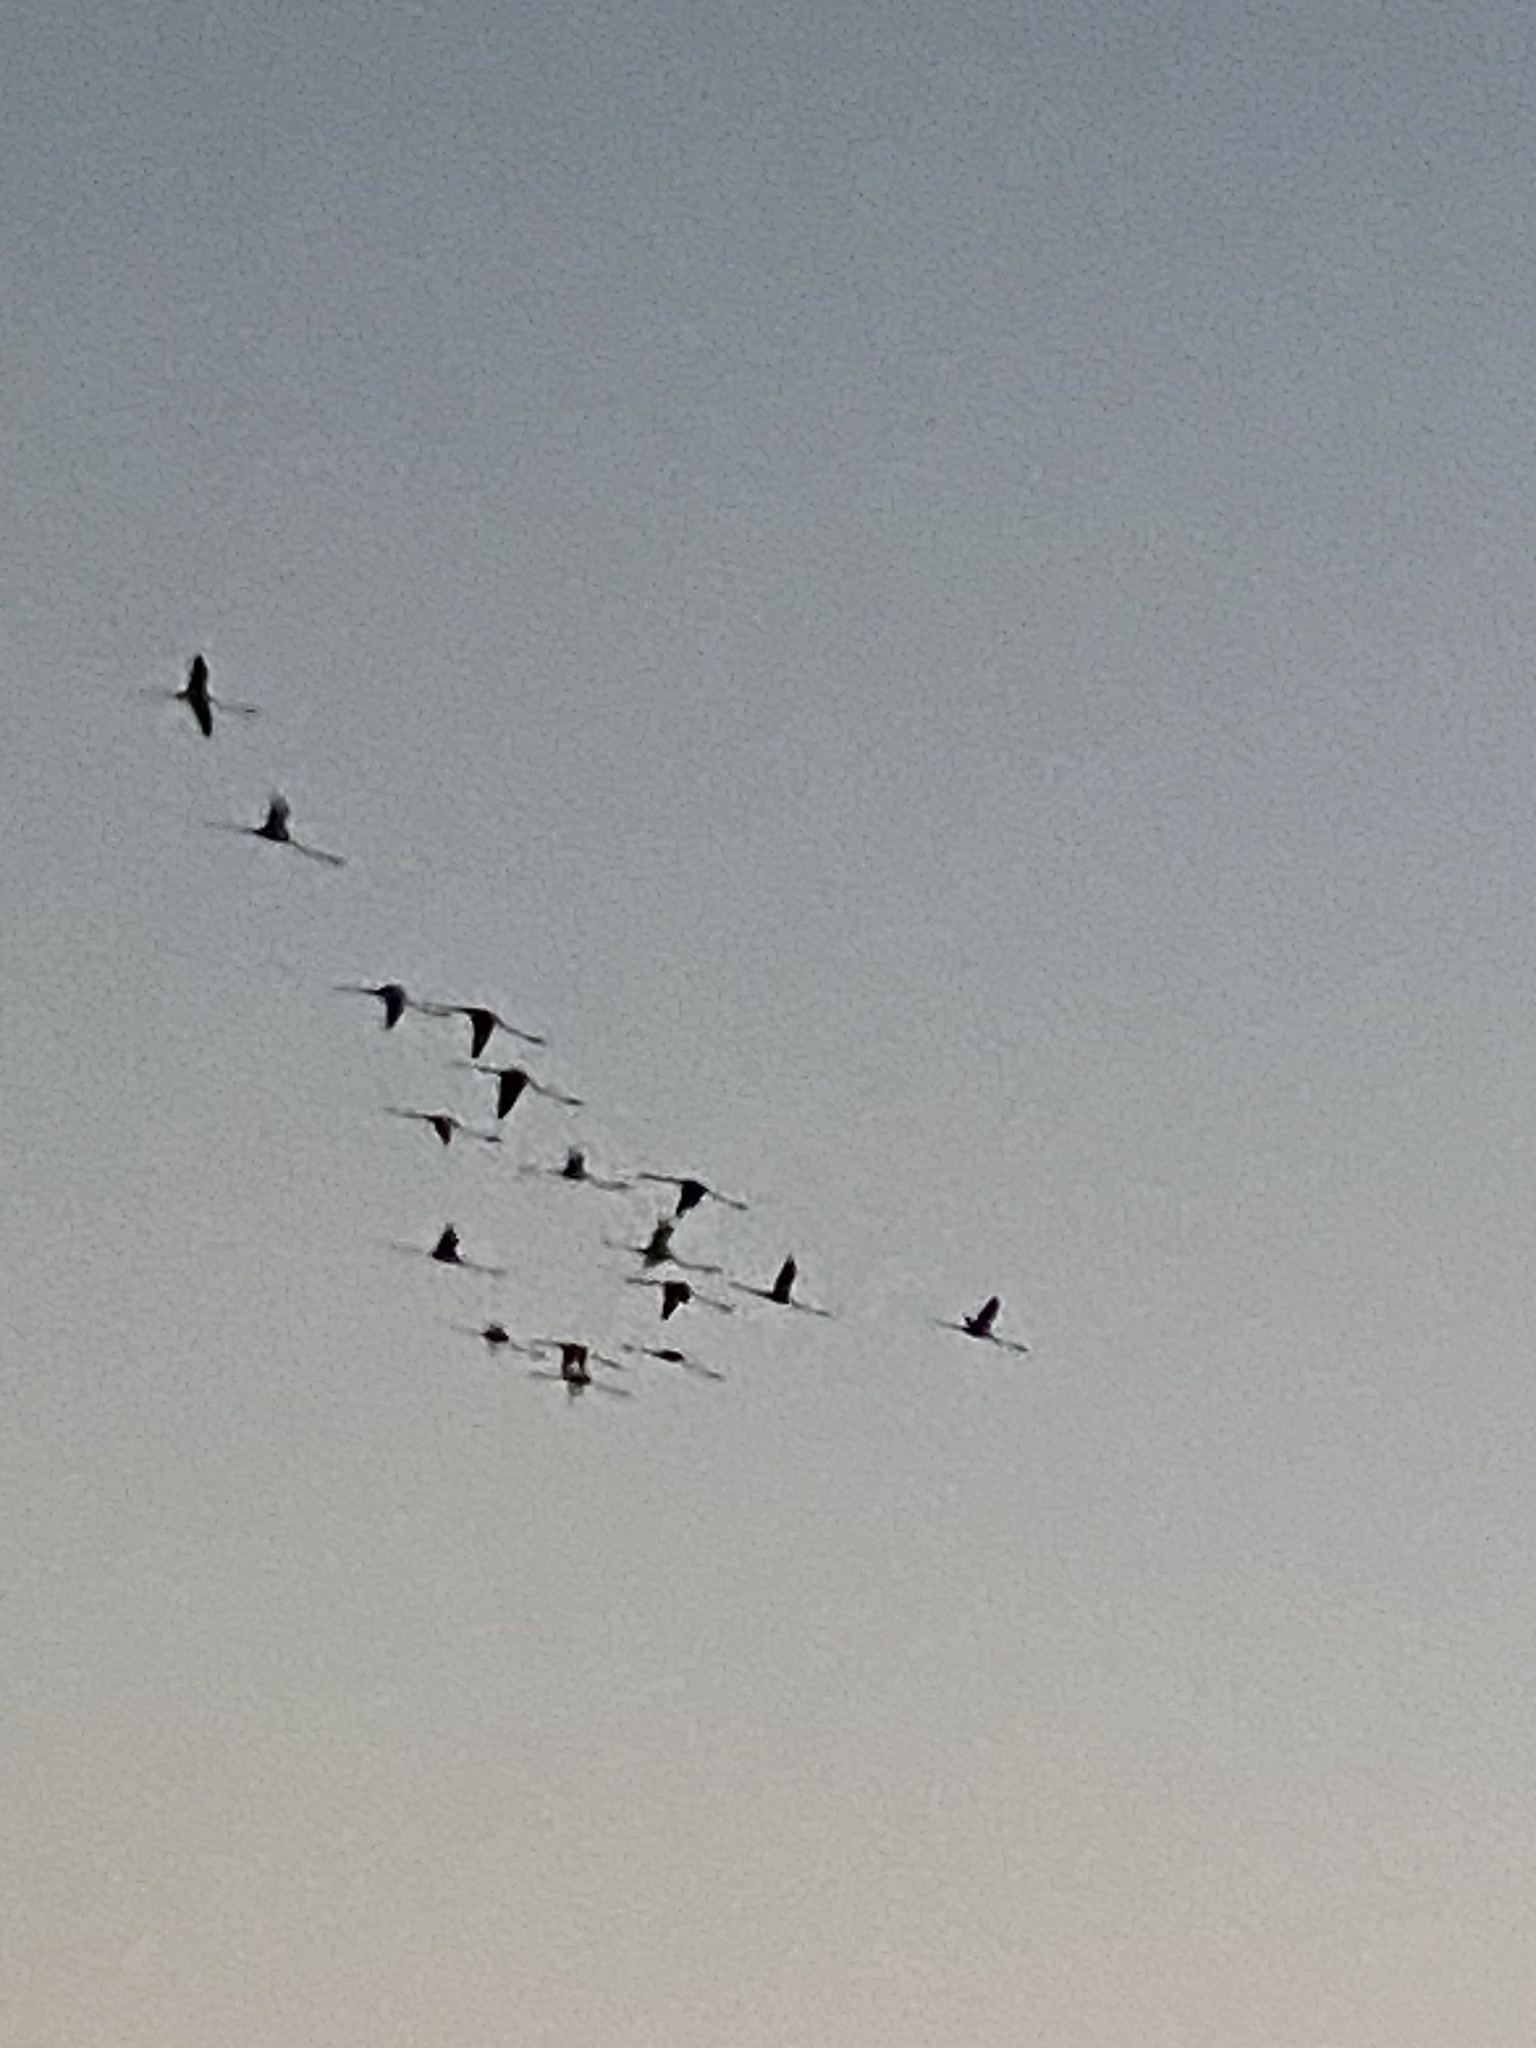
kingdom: Animalia
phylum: Chordata
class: Aves
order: Phoenicopteriformes
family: Phoenicopteridae
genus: Phoenicopterus
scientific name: Phoenicopterus roseus
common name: Greater flamingo
